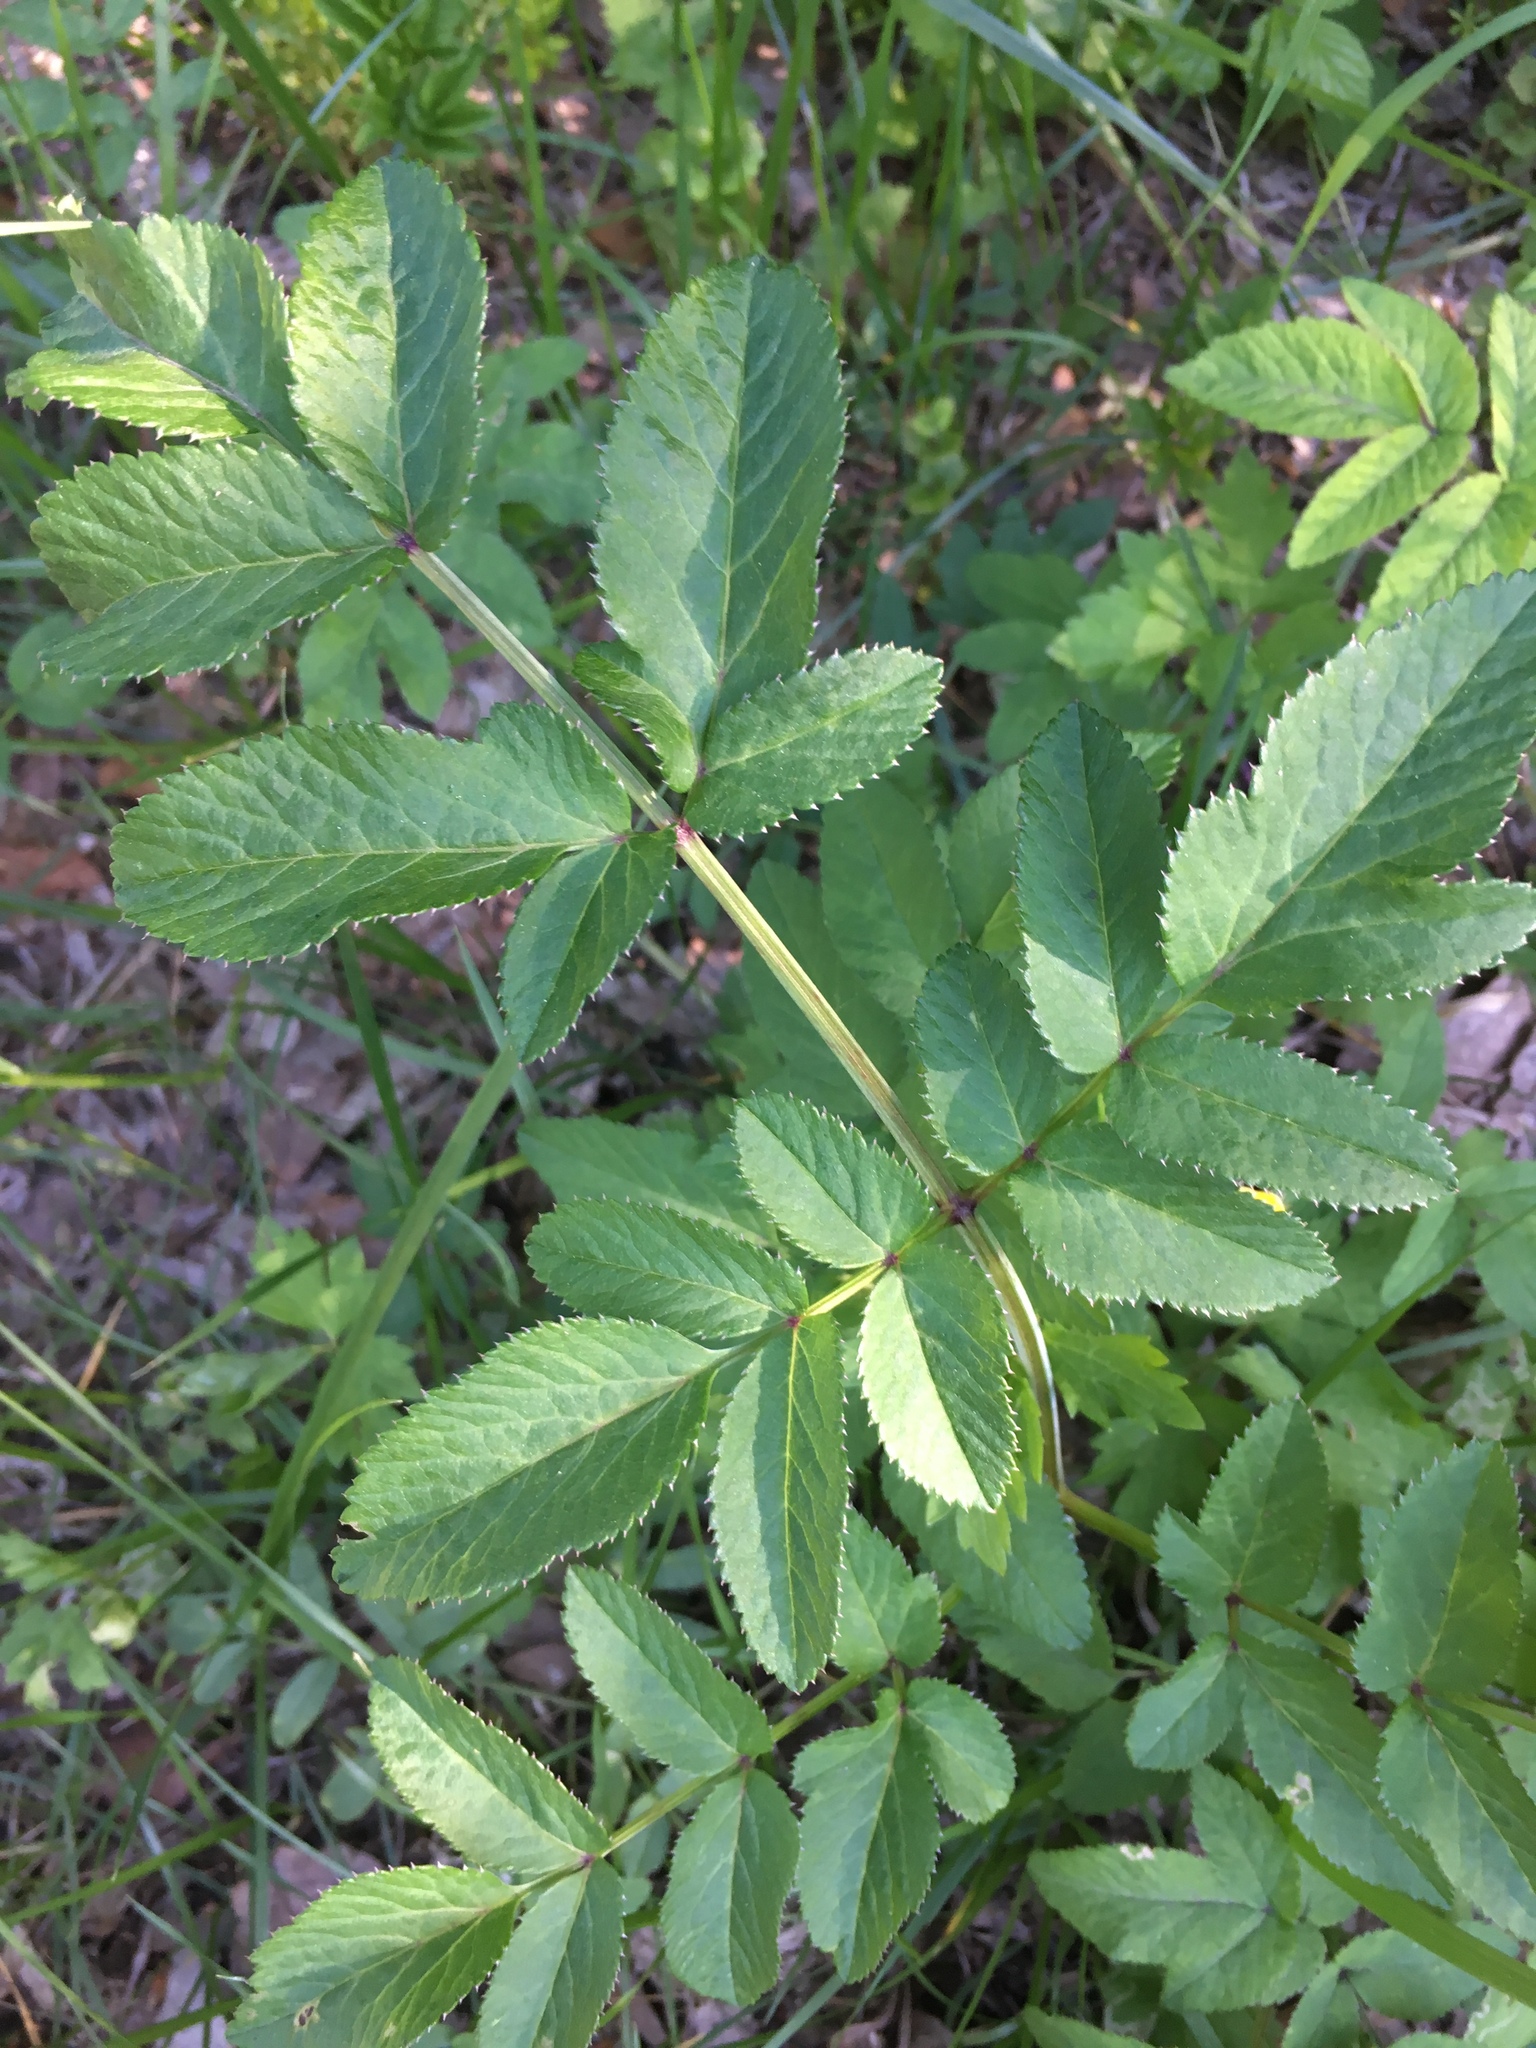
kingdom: Plantae
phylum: Tracheophyta
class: Magnoliopsida
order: Apiales
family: Apiaceae
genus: Angelica
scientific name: Angelica sylvestris
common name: Wild angelica
